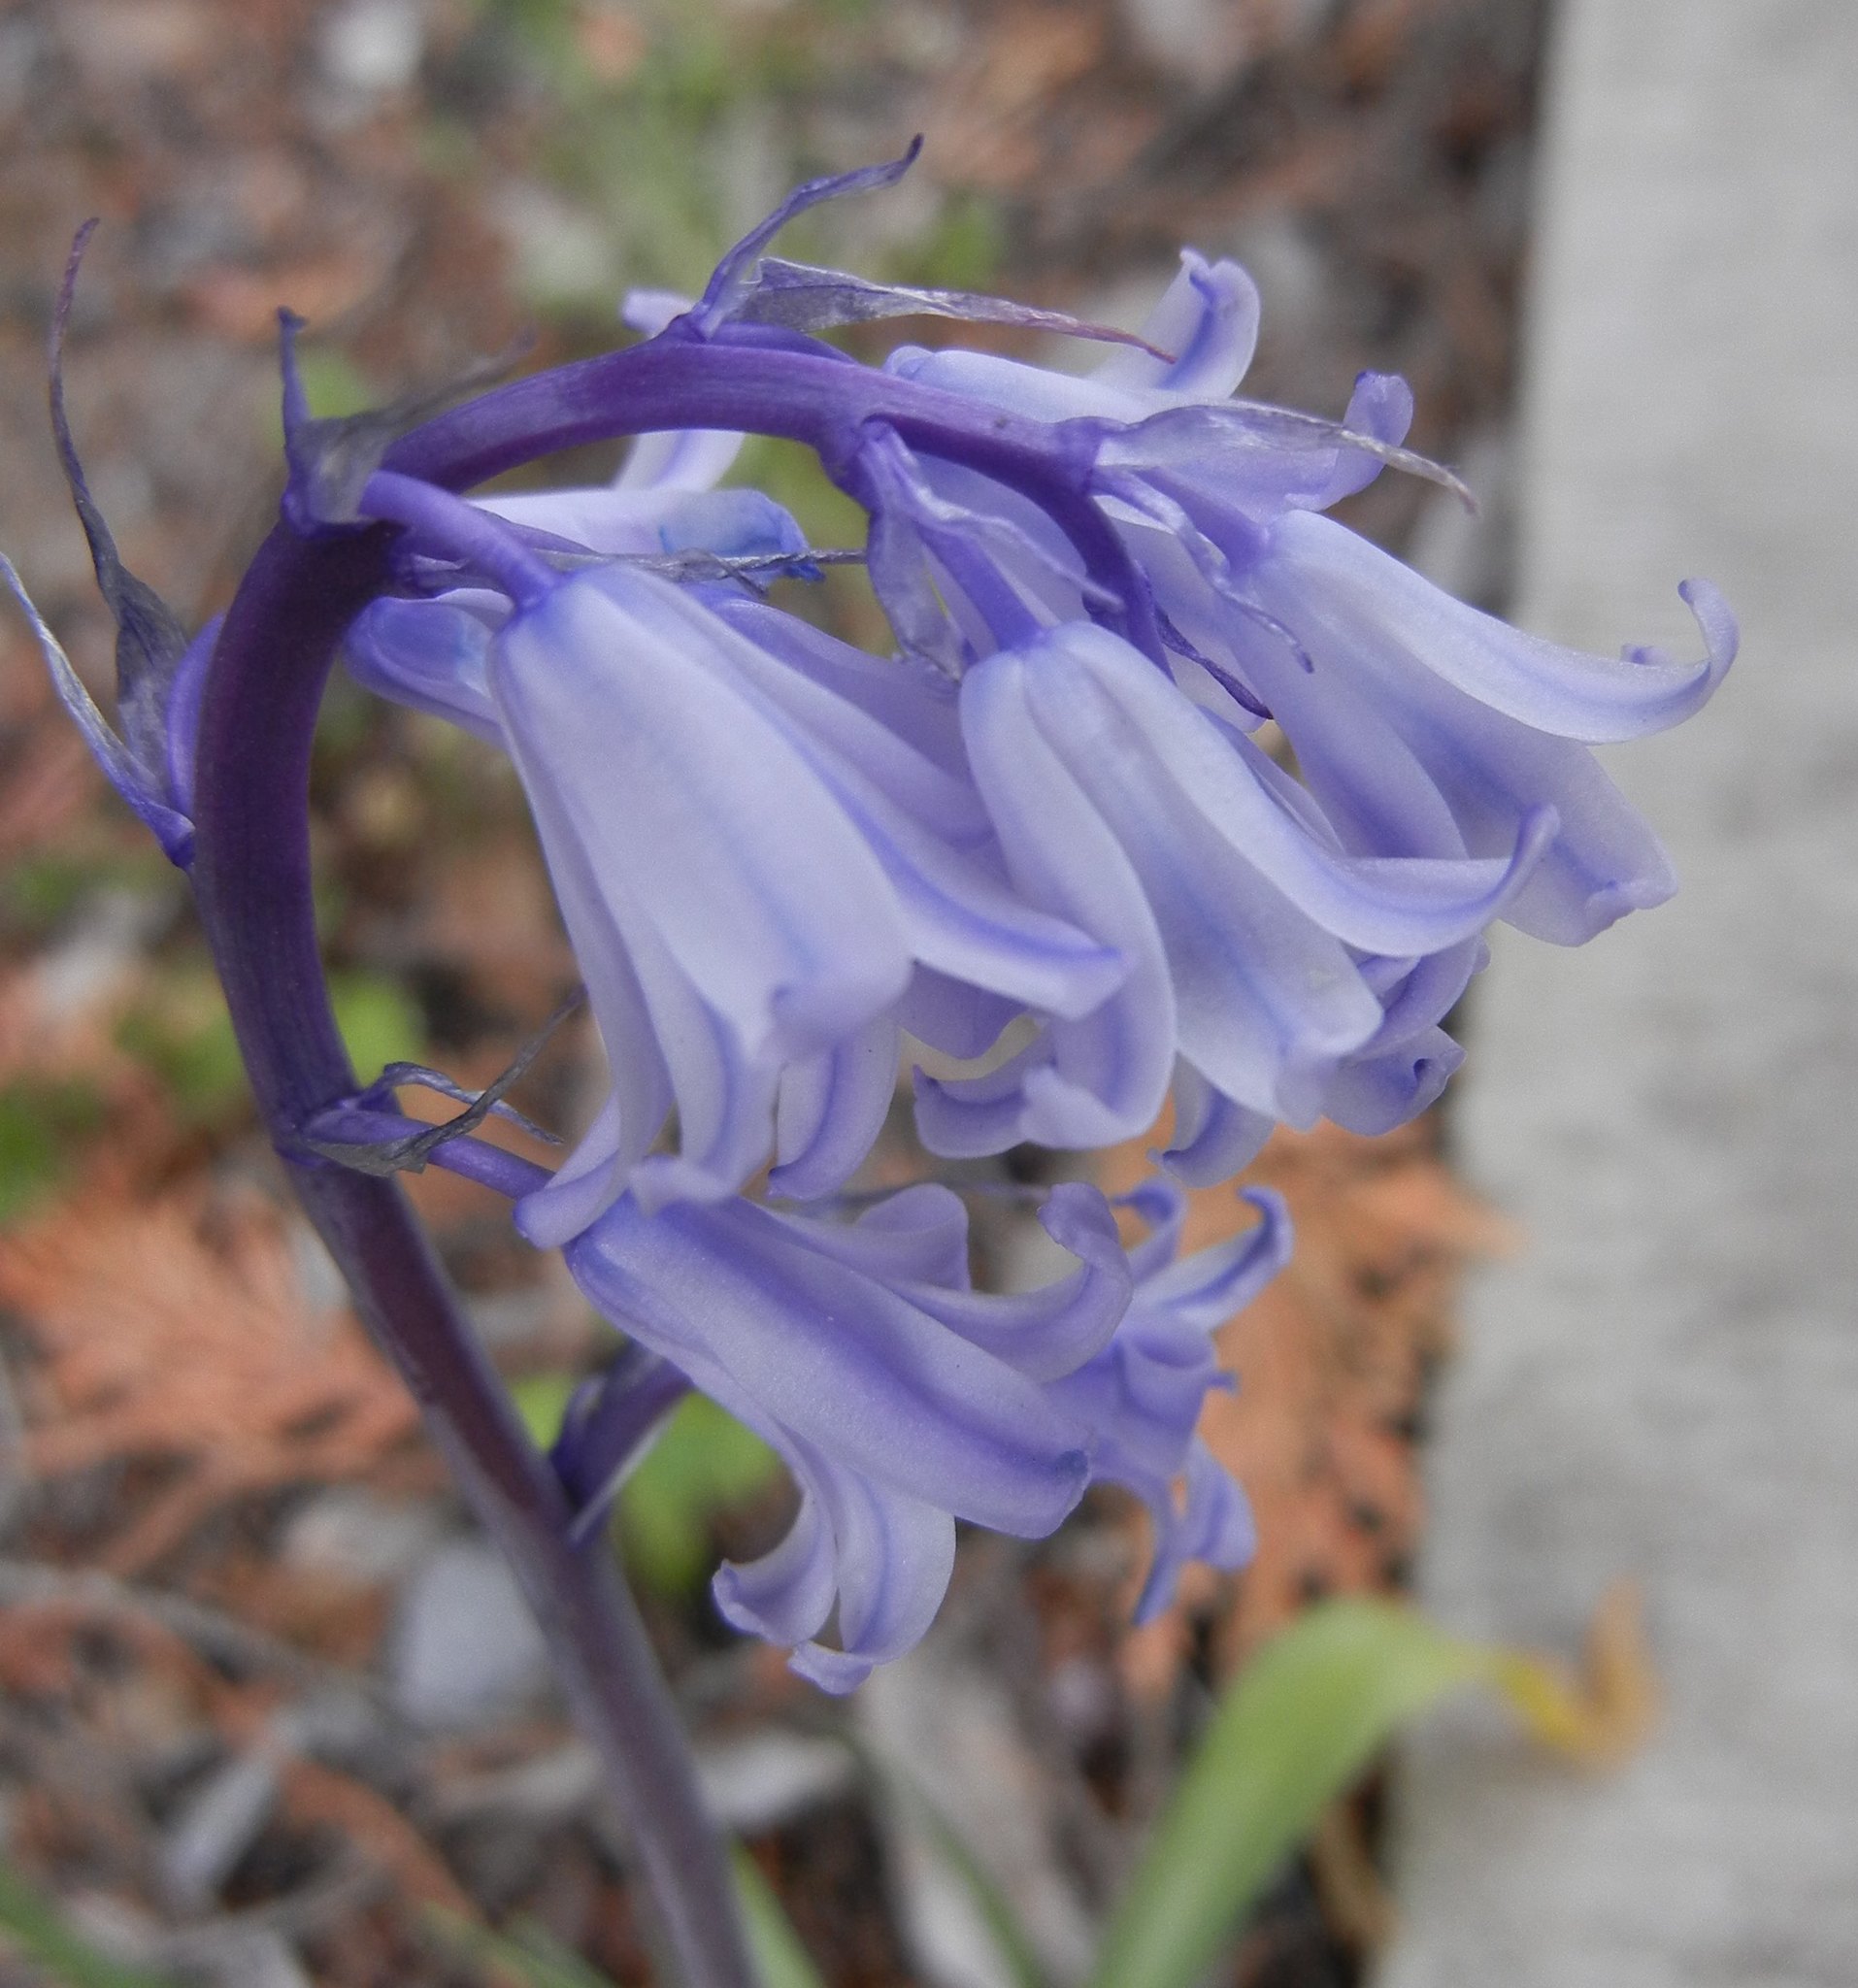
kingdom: Plantae
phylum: Tracheophyta
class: Liliopsida
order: Asparagales
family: Asparagaceae
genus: Hyacinthoides
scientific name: Hyacinthoides massartiana
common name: Hyacinthoides
